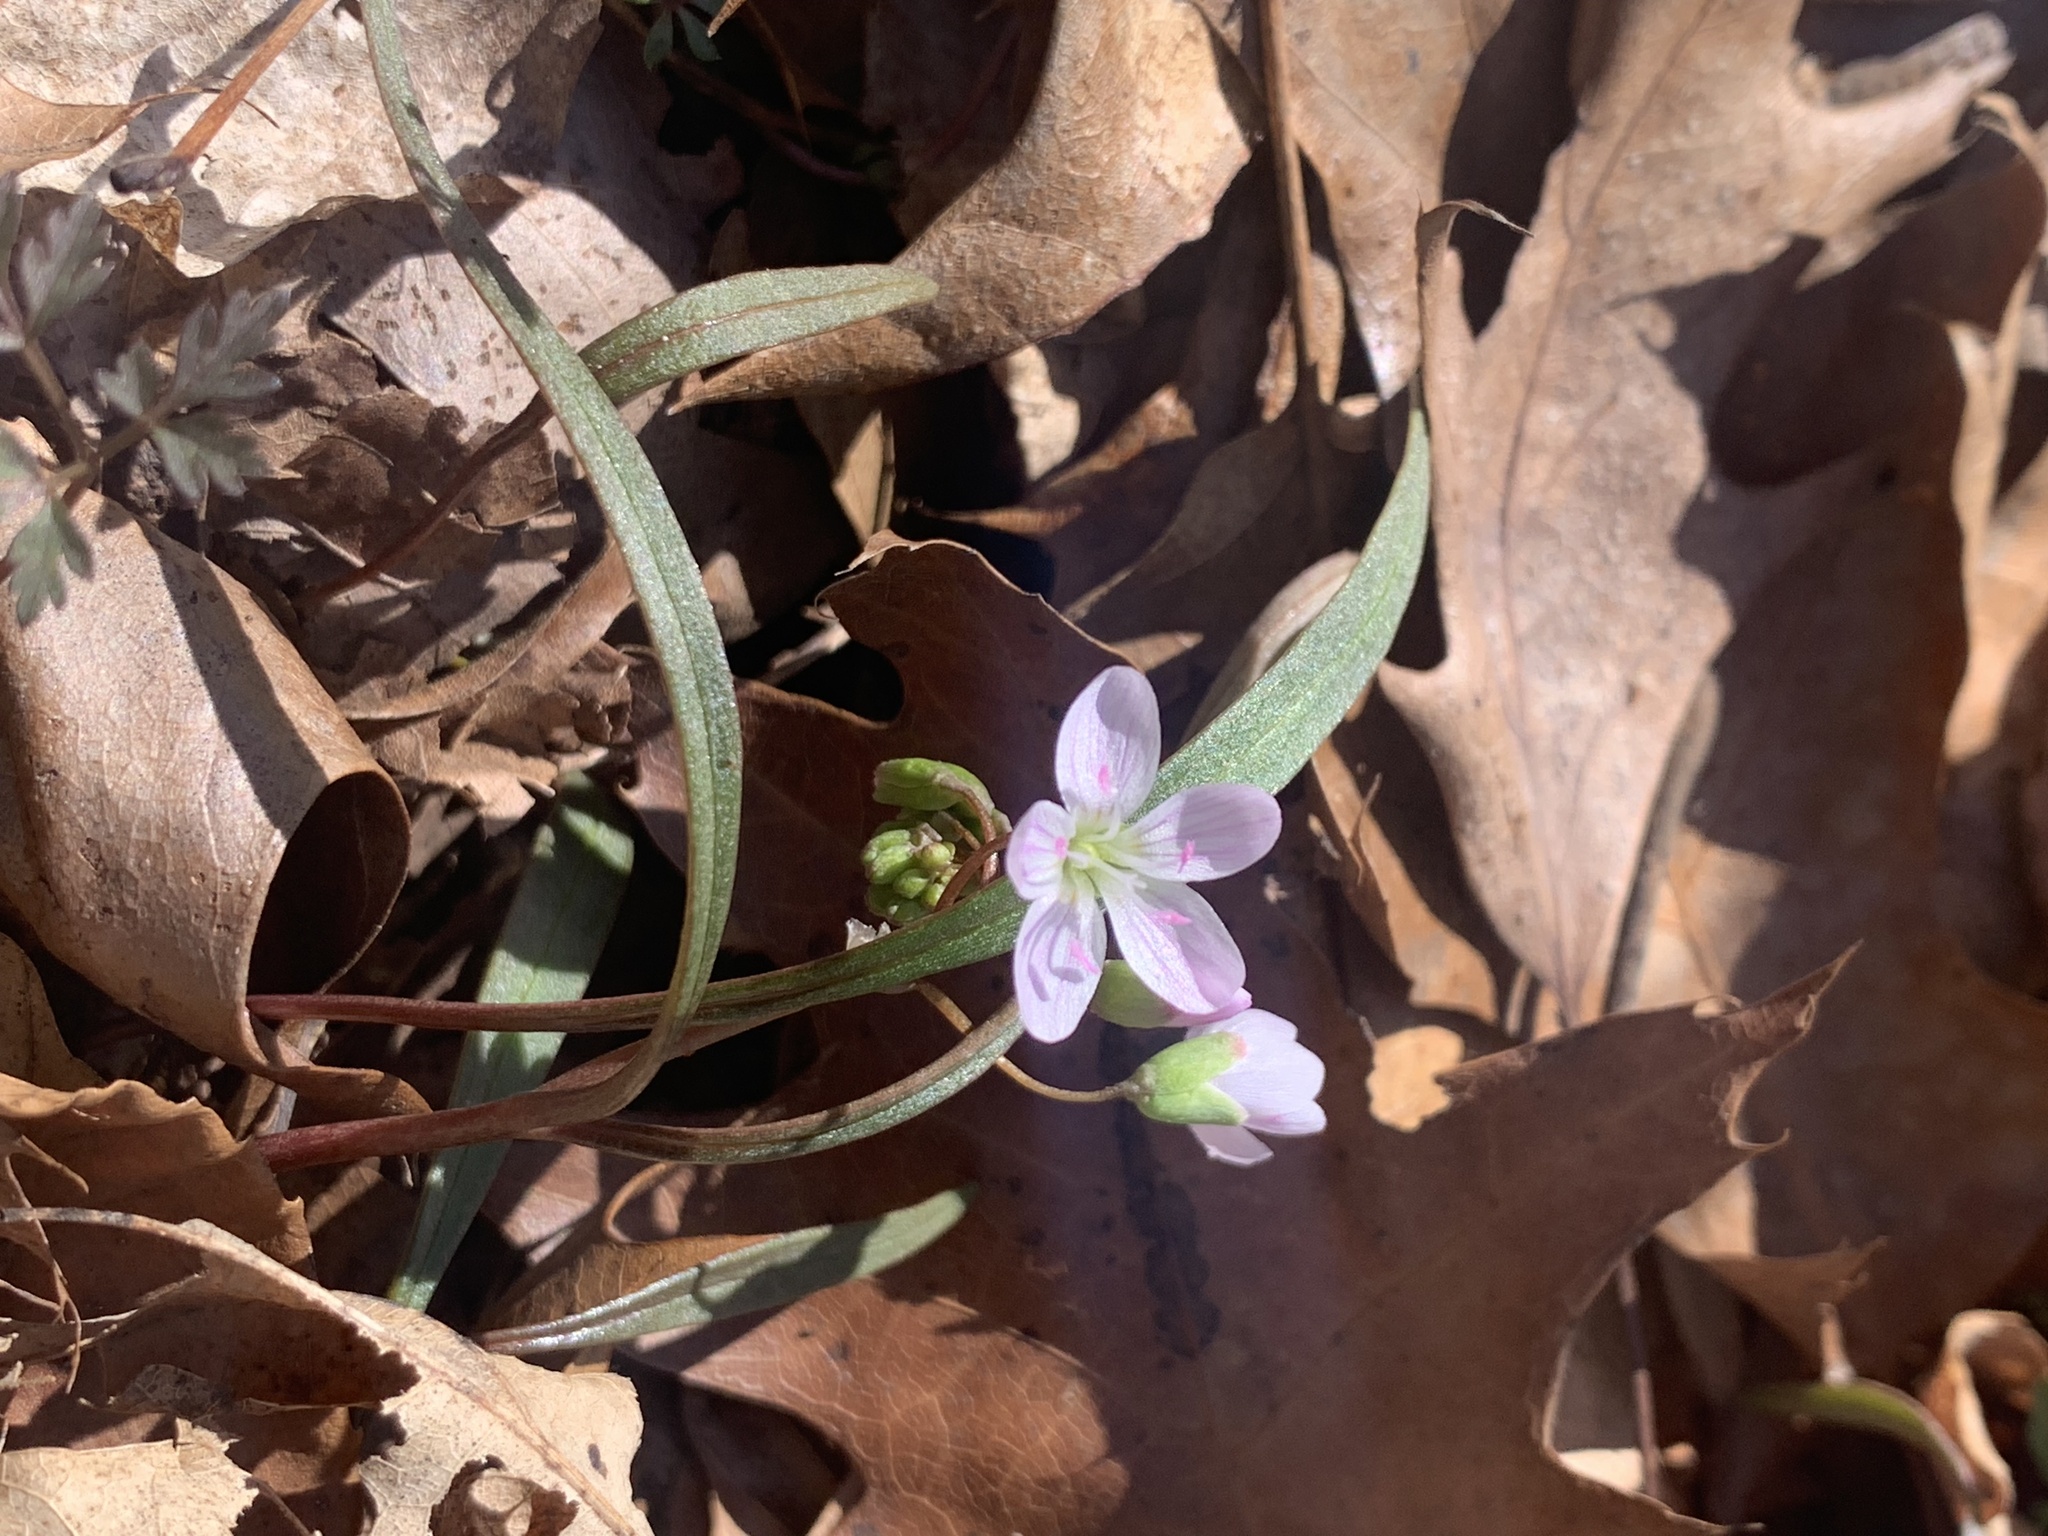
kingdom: Plantae
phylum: Tracheophyta
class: Magnoliopsida
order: Caryophyllales
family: Montiaceae
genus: Claytonia
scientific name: Claytonia virginica
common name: Virginia springbeauty
